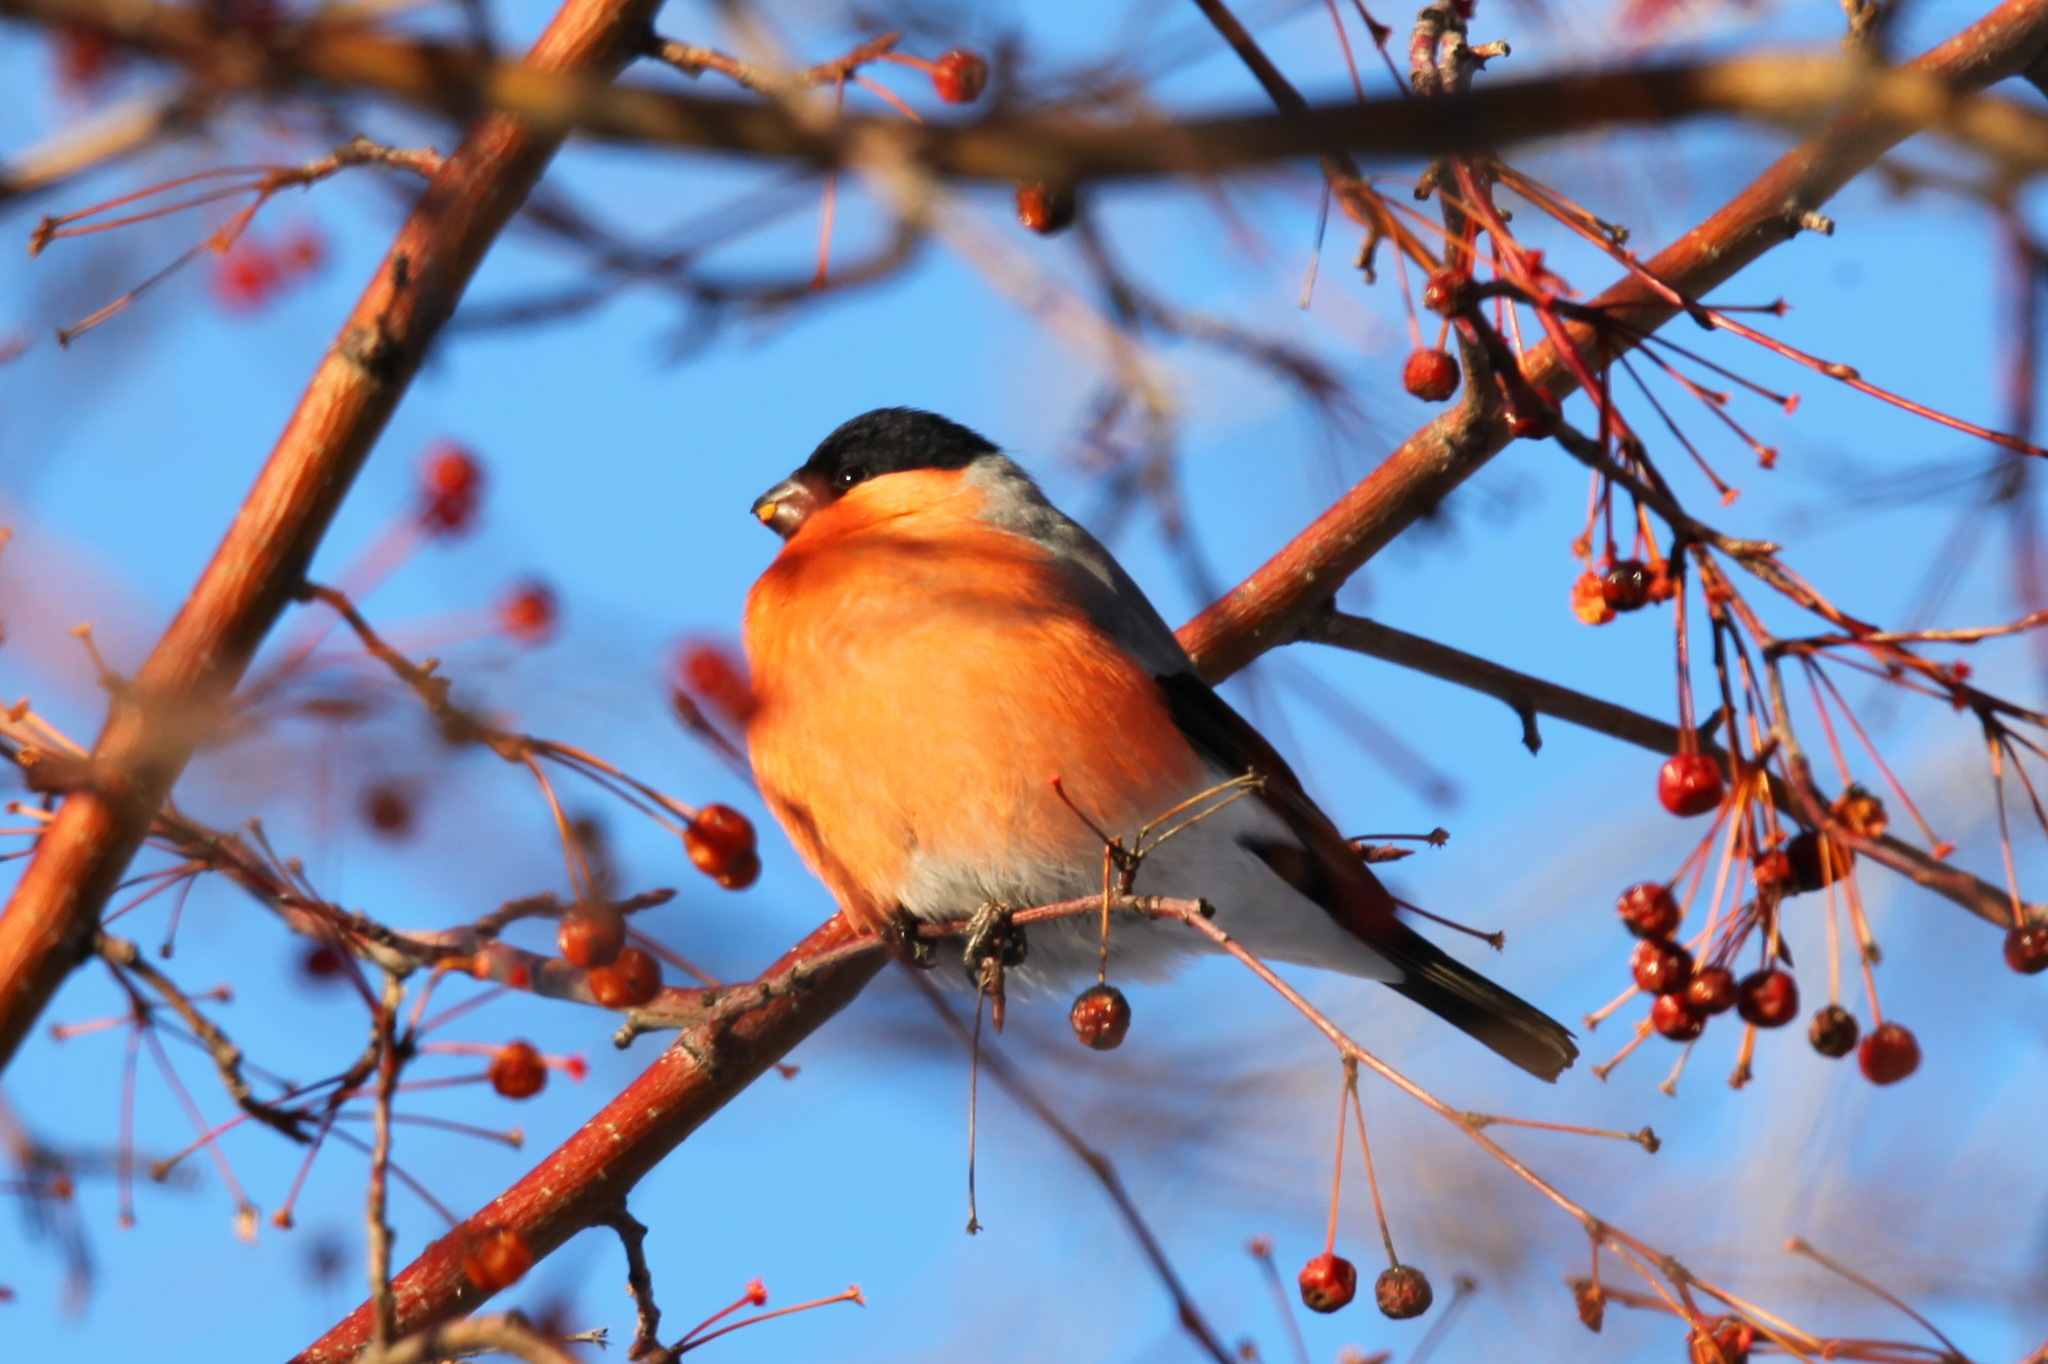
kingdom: Animalia
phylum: Chordata
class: Aves
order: Passeriformes
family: Fringillidae
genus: Pyrrhula
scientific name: Pyrrhula pyrrhula
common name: Eurasian bullfinch
